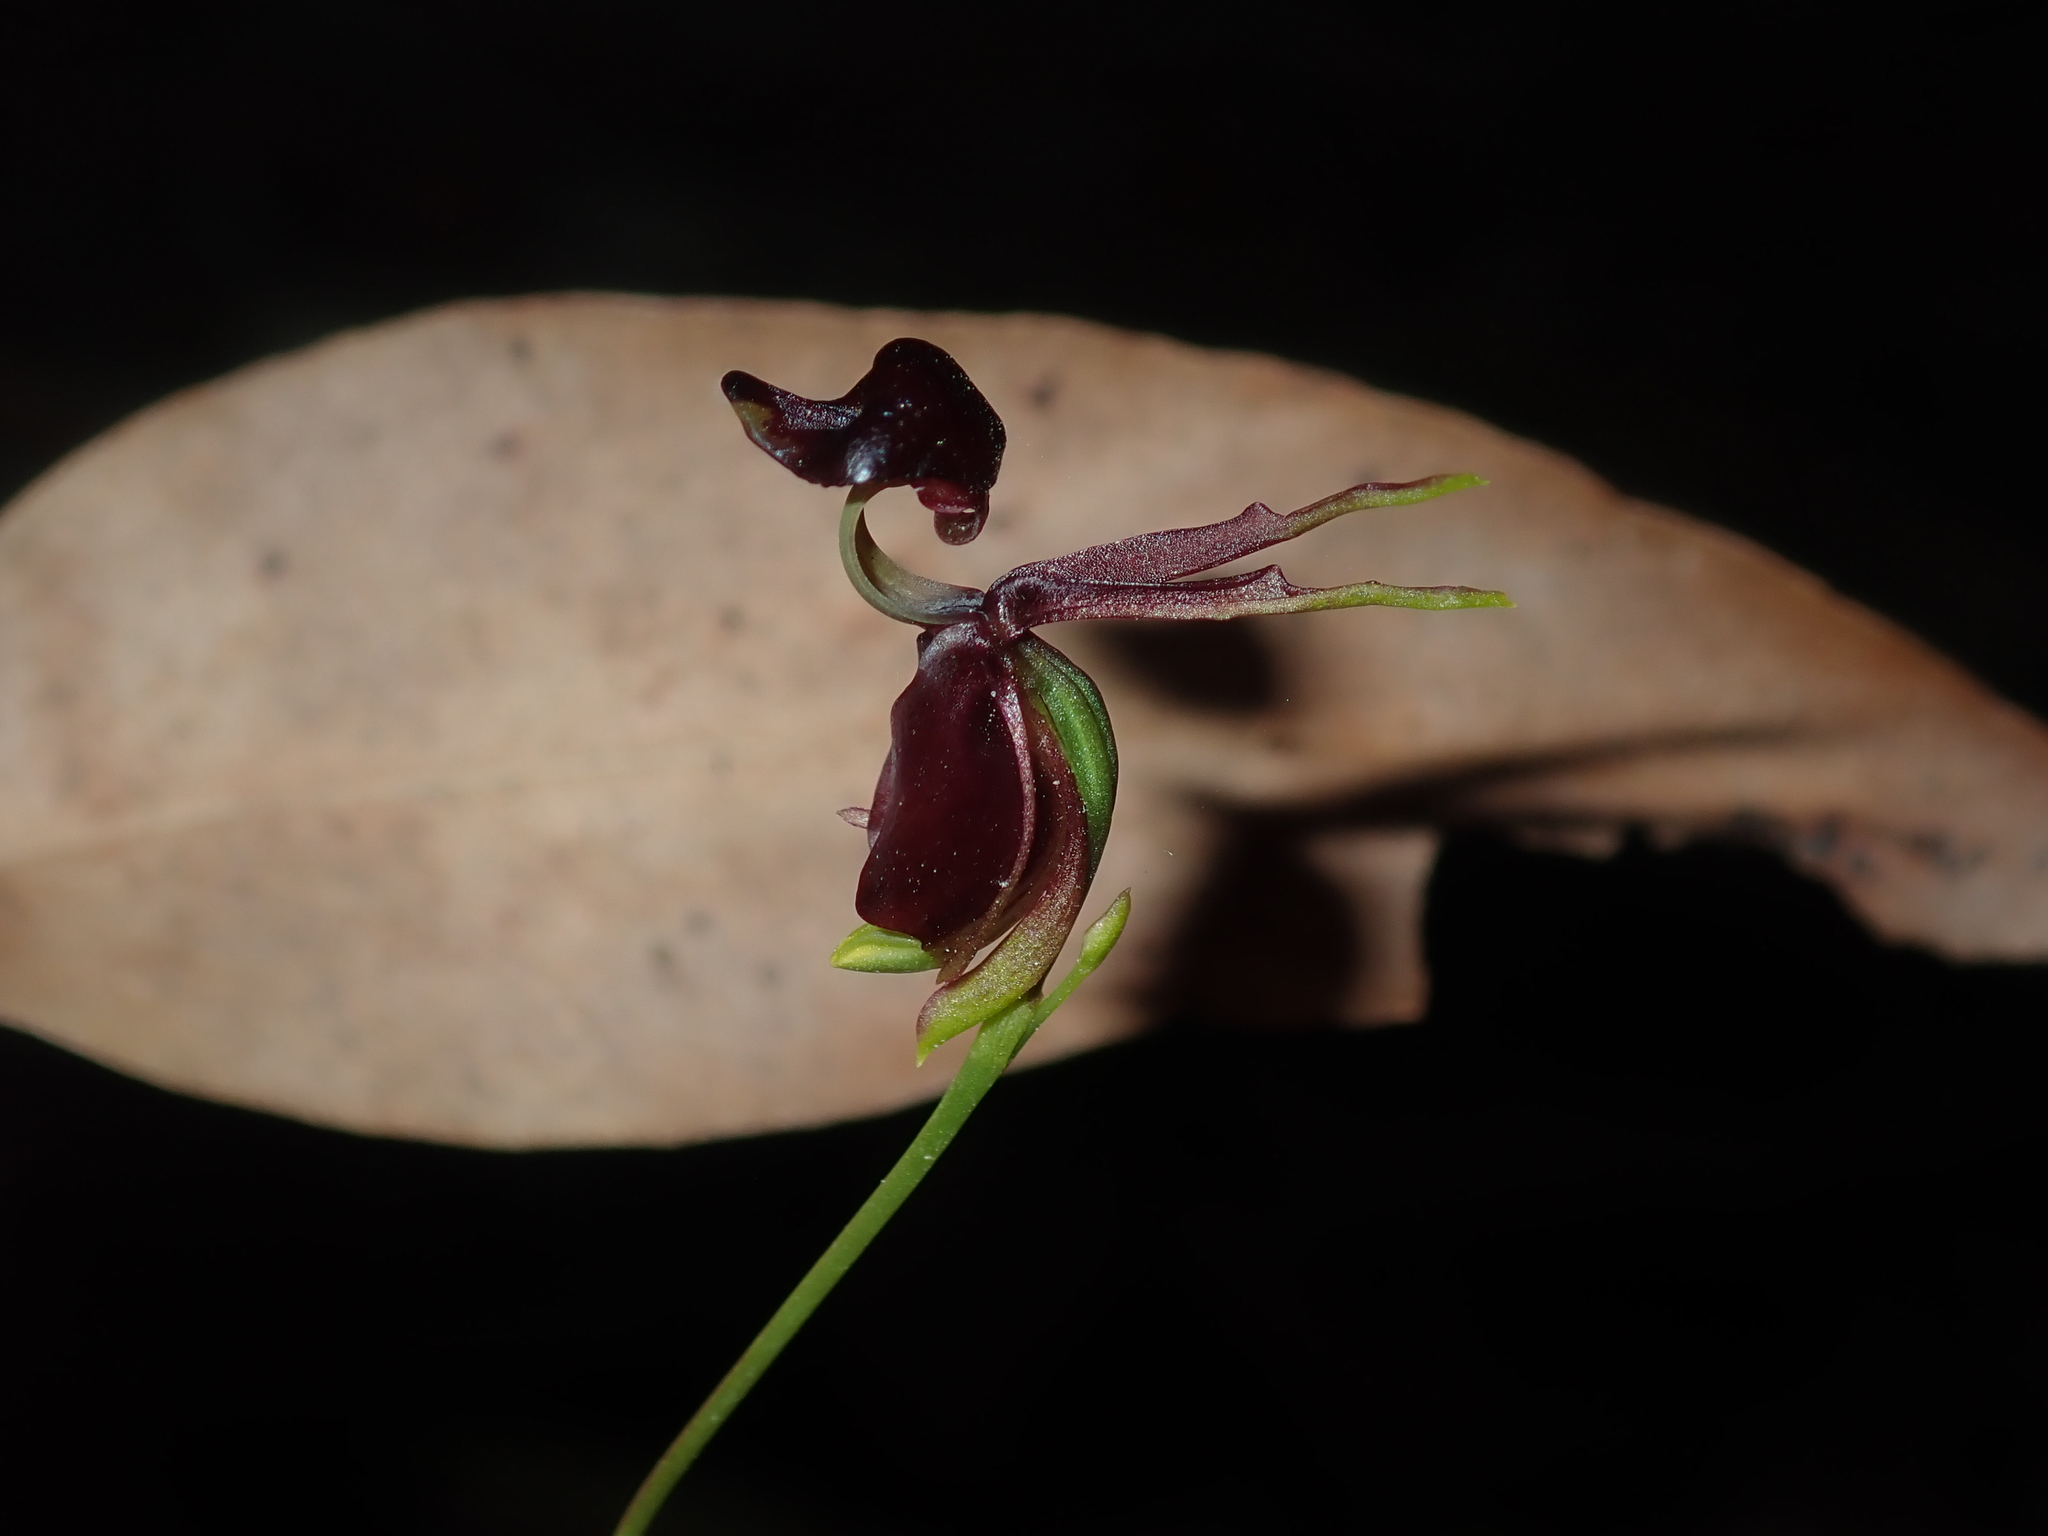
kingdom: Plantae
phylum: Tracheophyta
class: Liliopsida
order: Asparagales
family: Orchidaceae
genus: Caleana
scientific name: Caleana major
